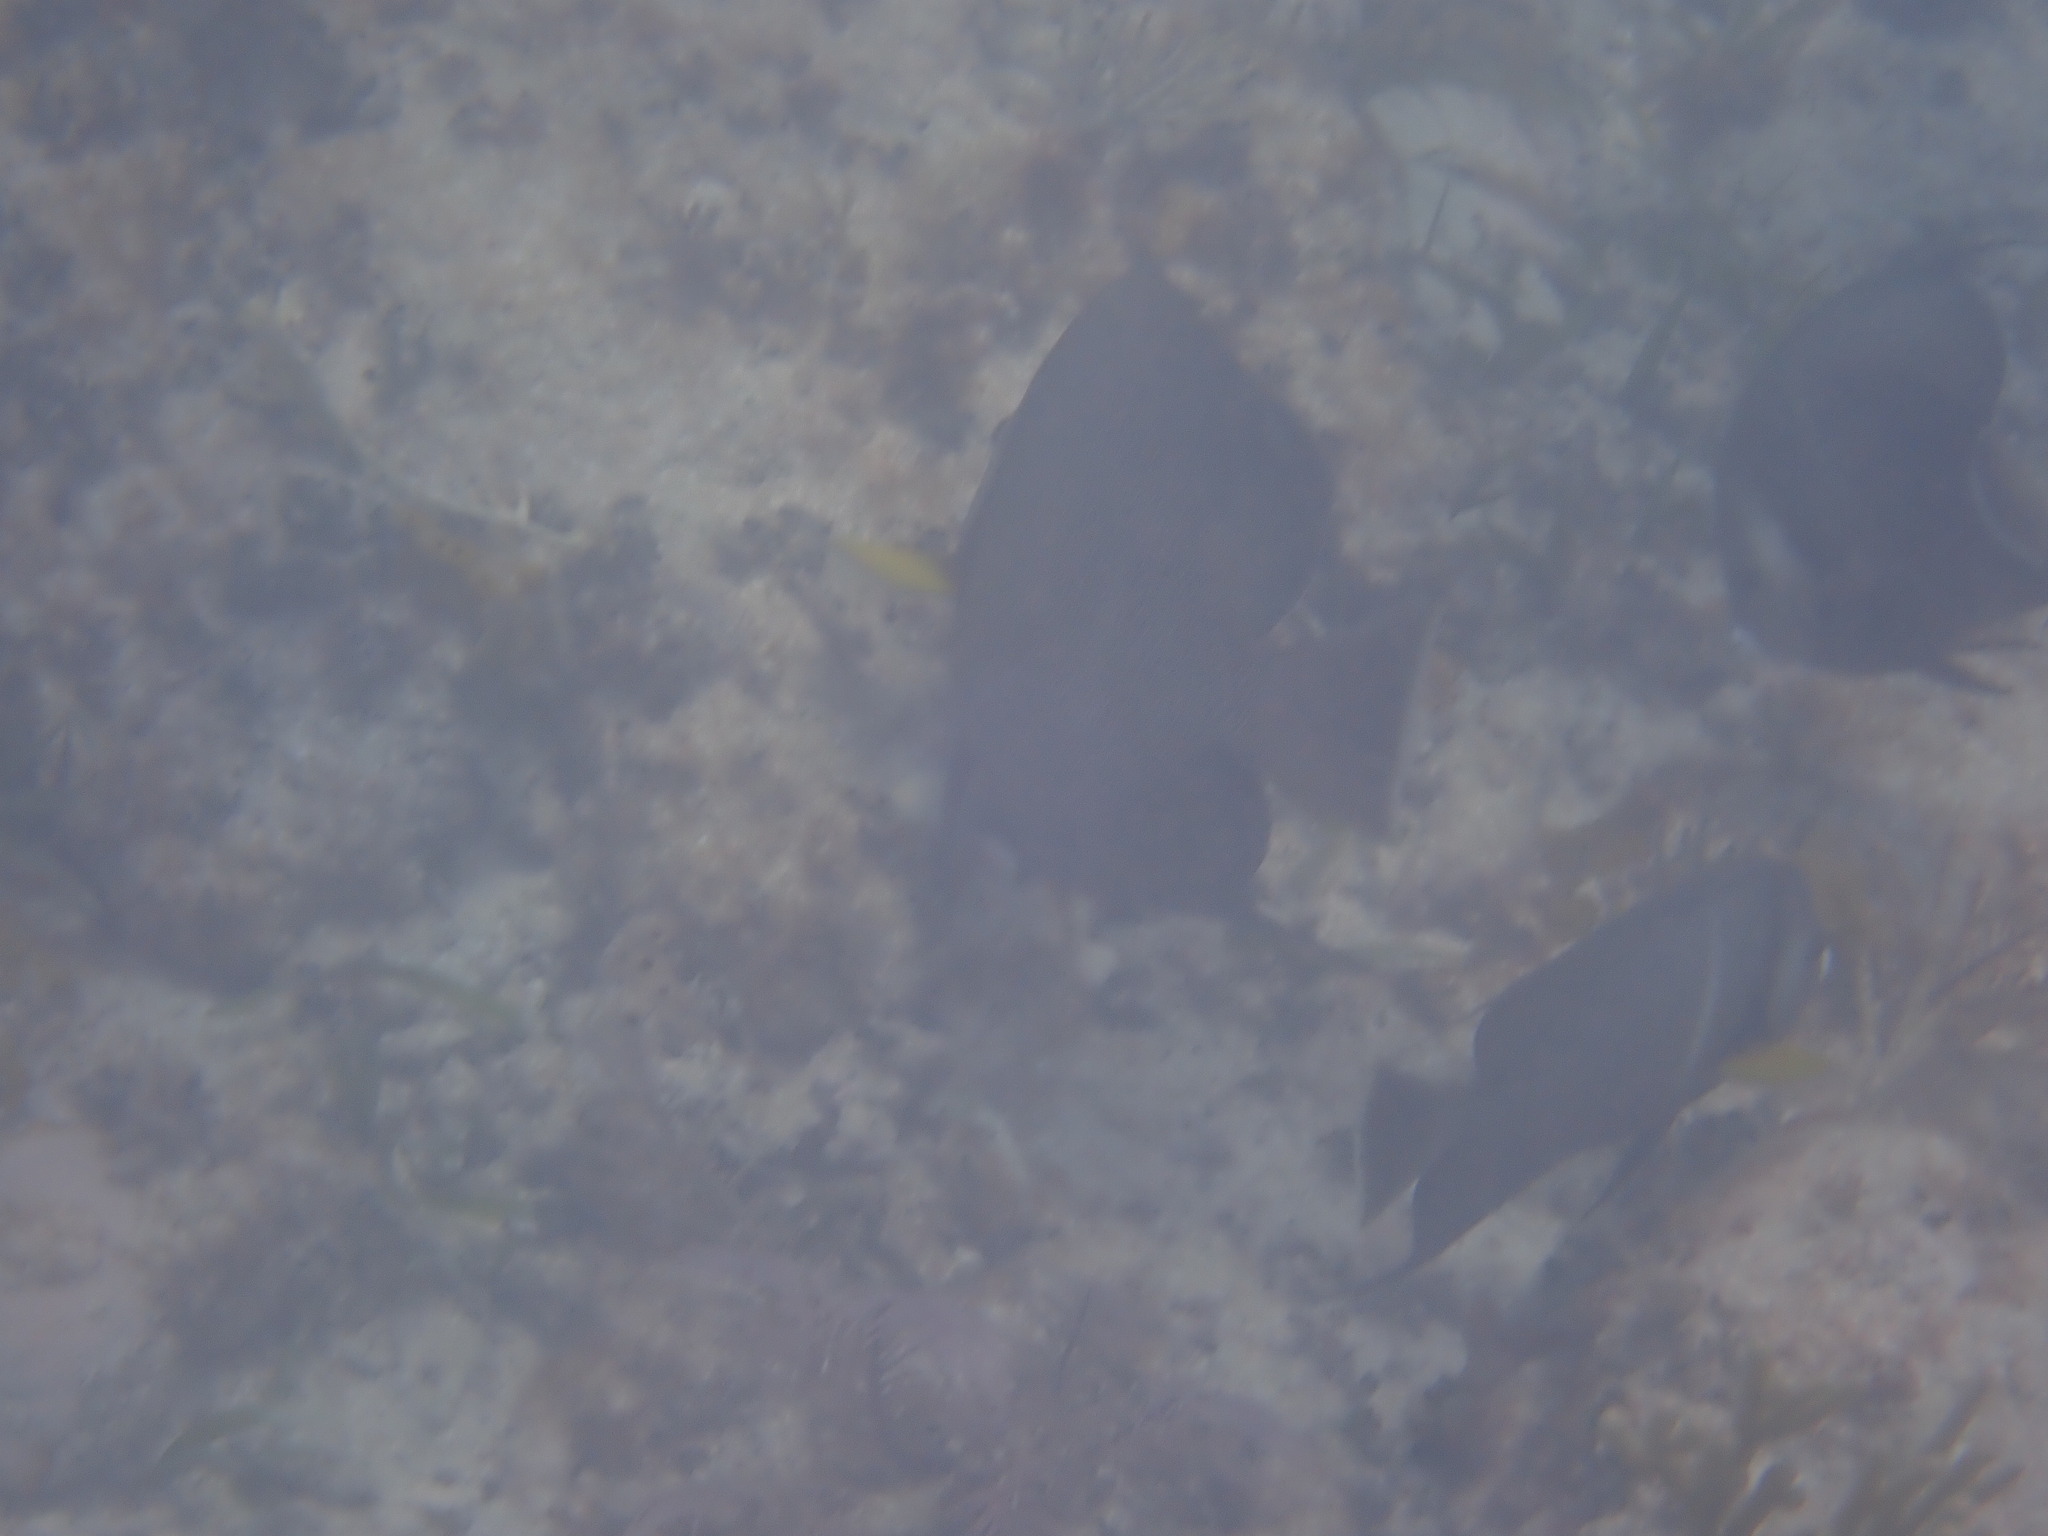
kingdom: Animalia
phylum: Chordata
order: Perciformes
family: Pomacanthidae
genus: Pomacanthus
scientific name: Pomacanthus arcuatus
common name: Gray angelfish
